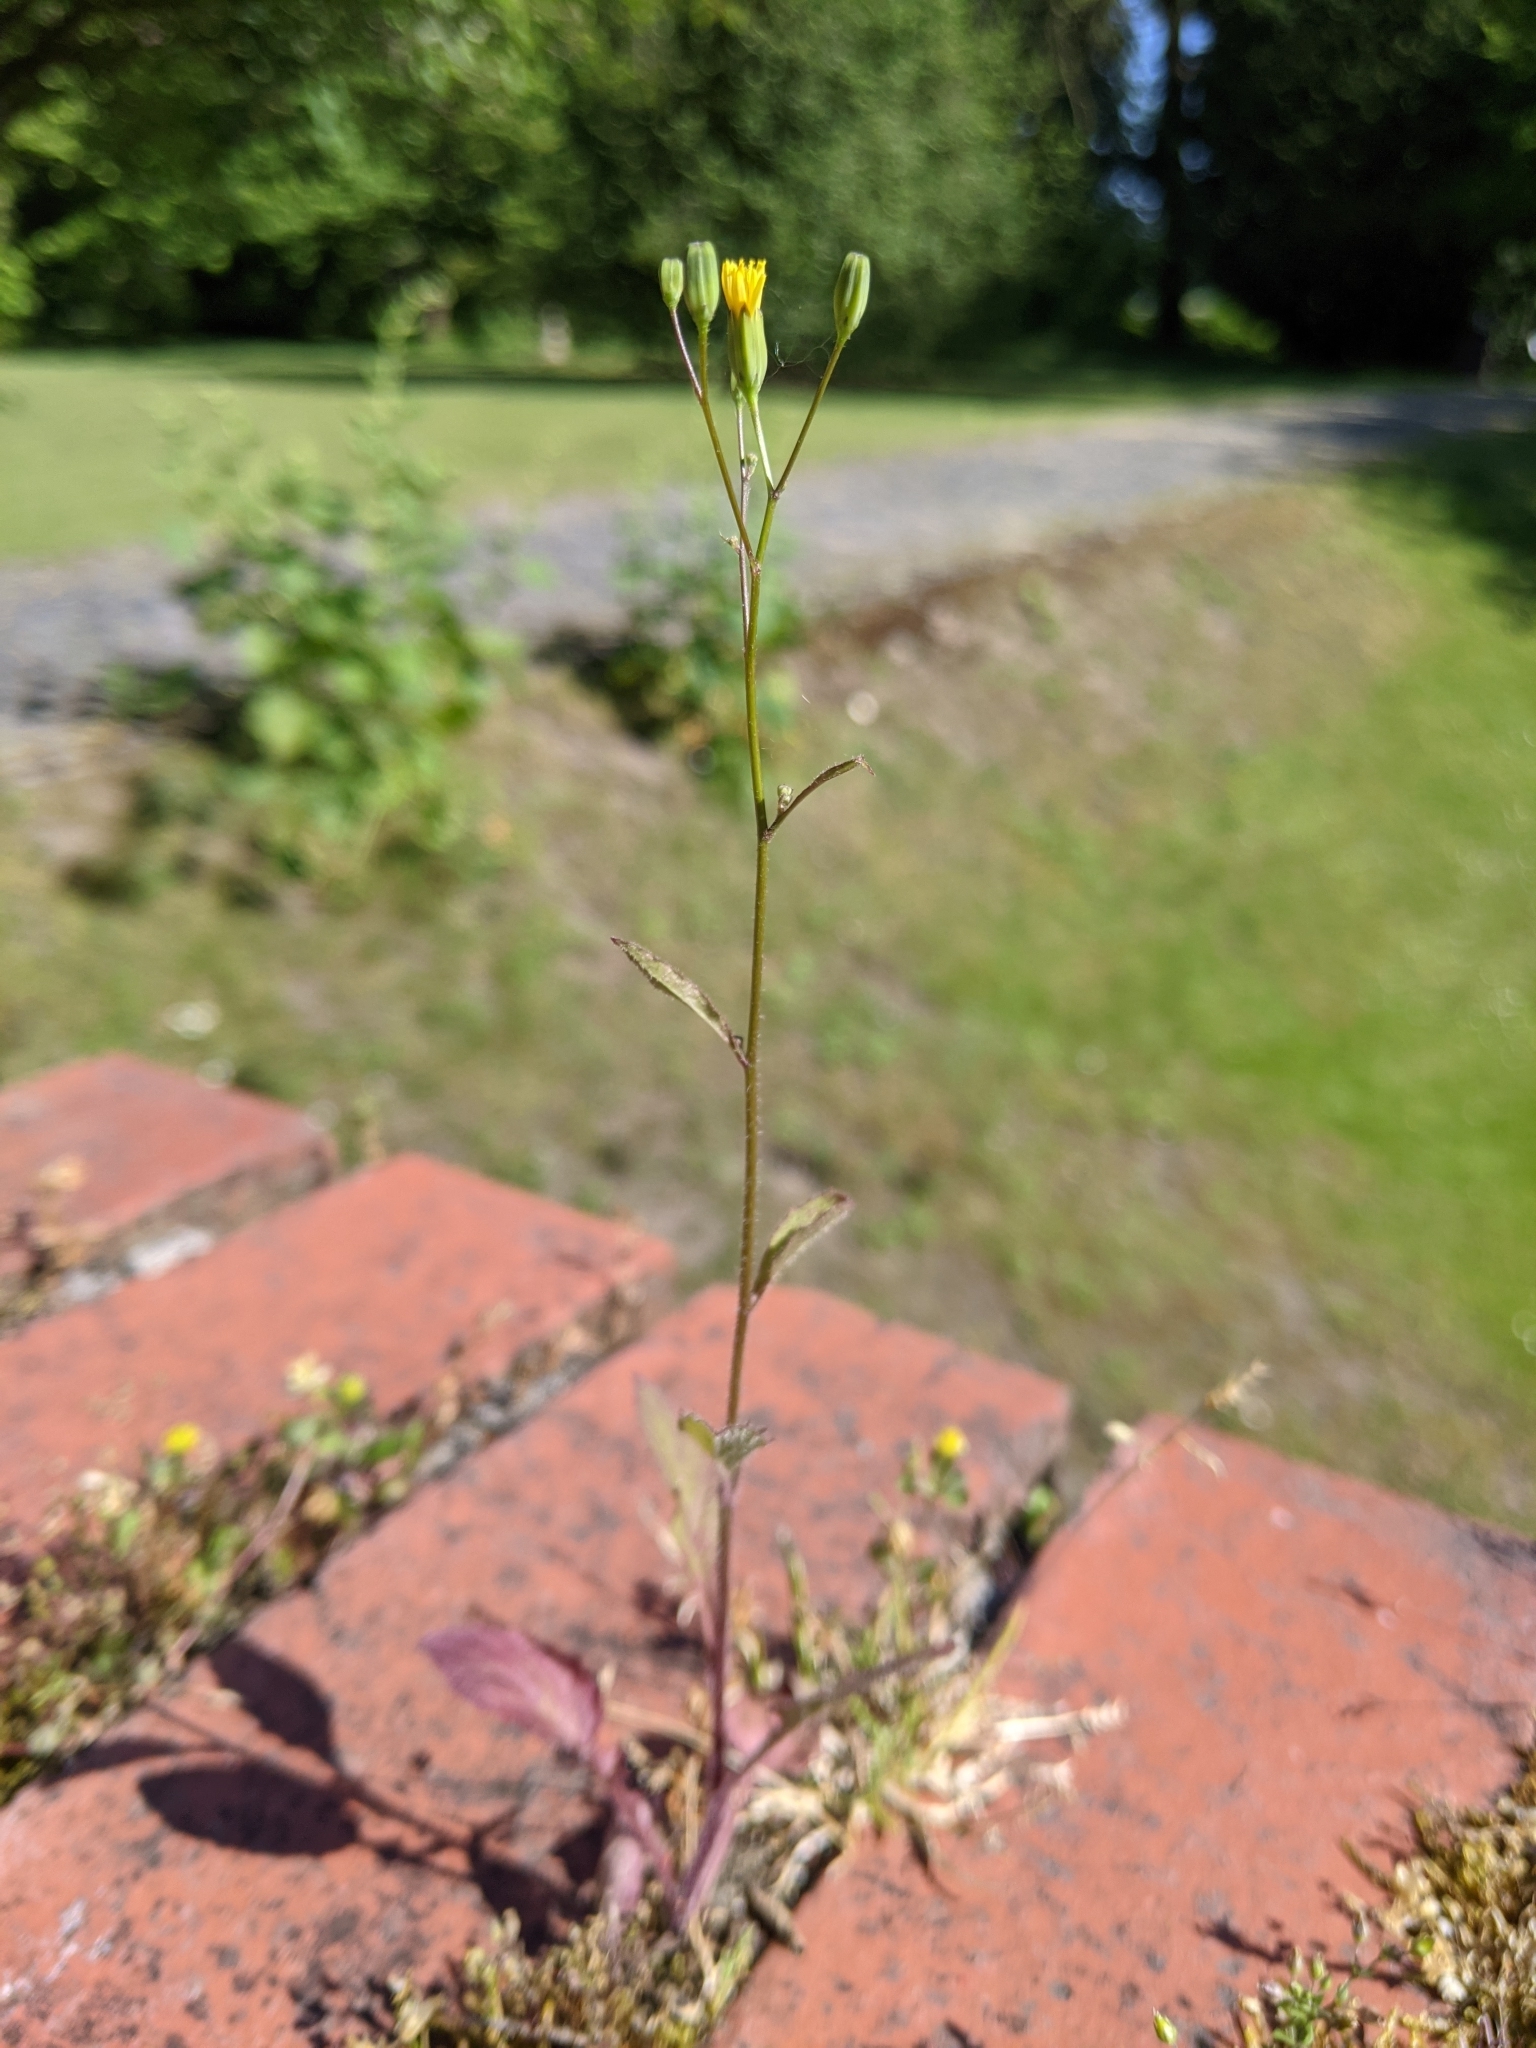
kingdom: Plantae
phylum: Tracheophyta
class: Magnoliopsida
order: Asterales
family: Asteraceae
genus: Lapsana
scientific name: Lapsana communis
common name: Nipplewort
